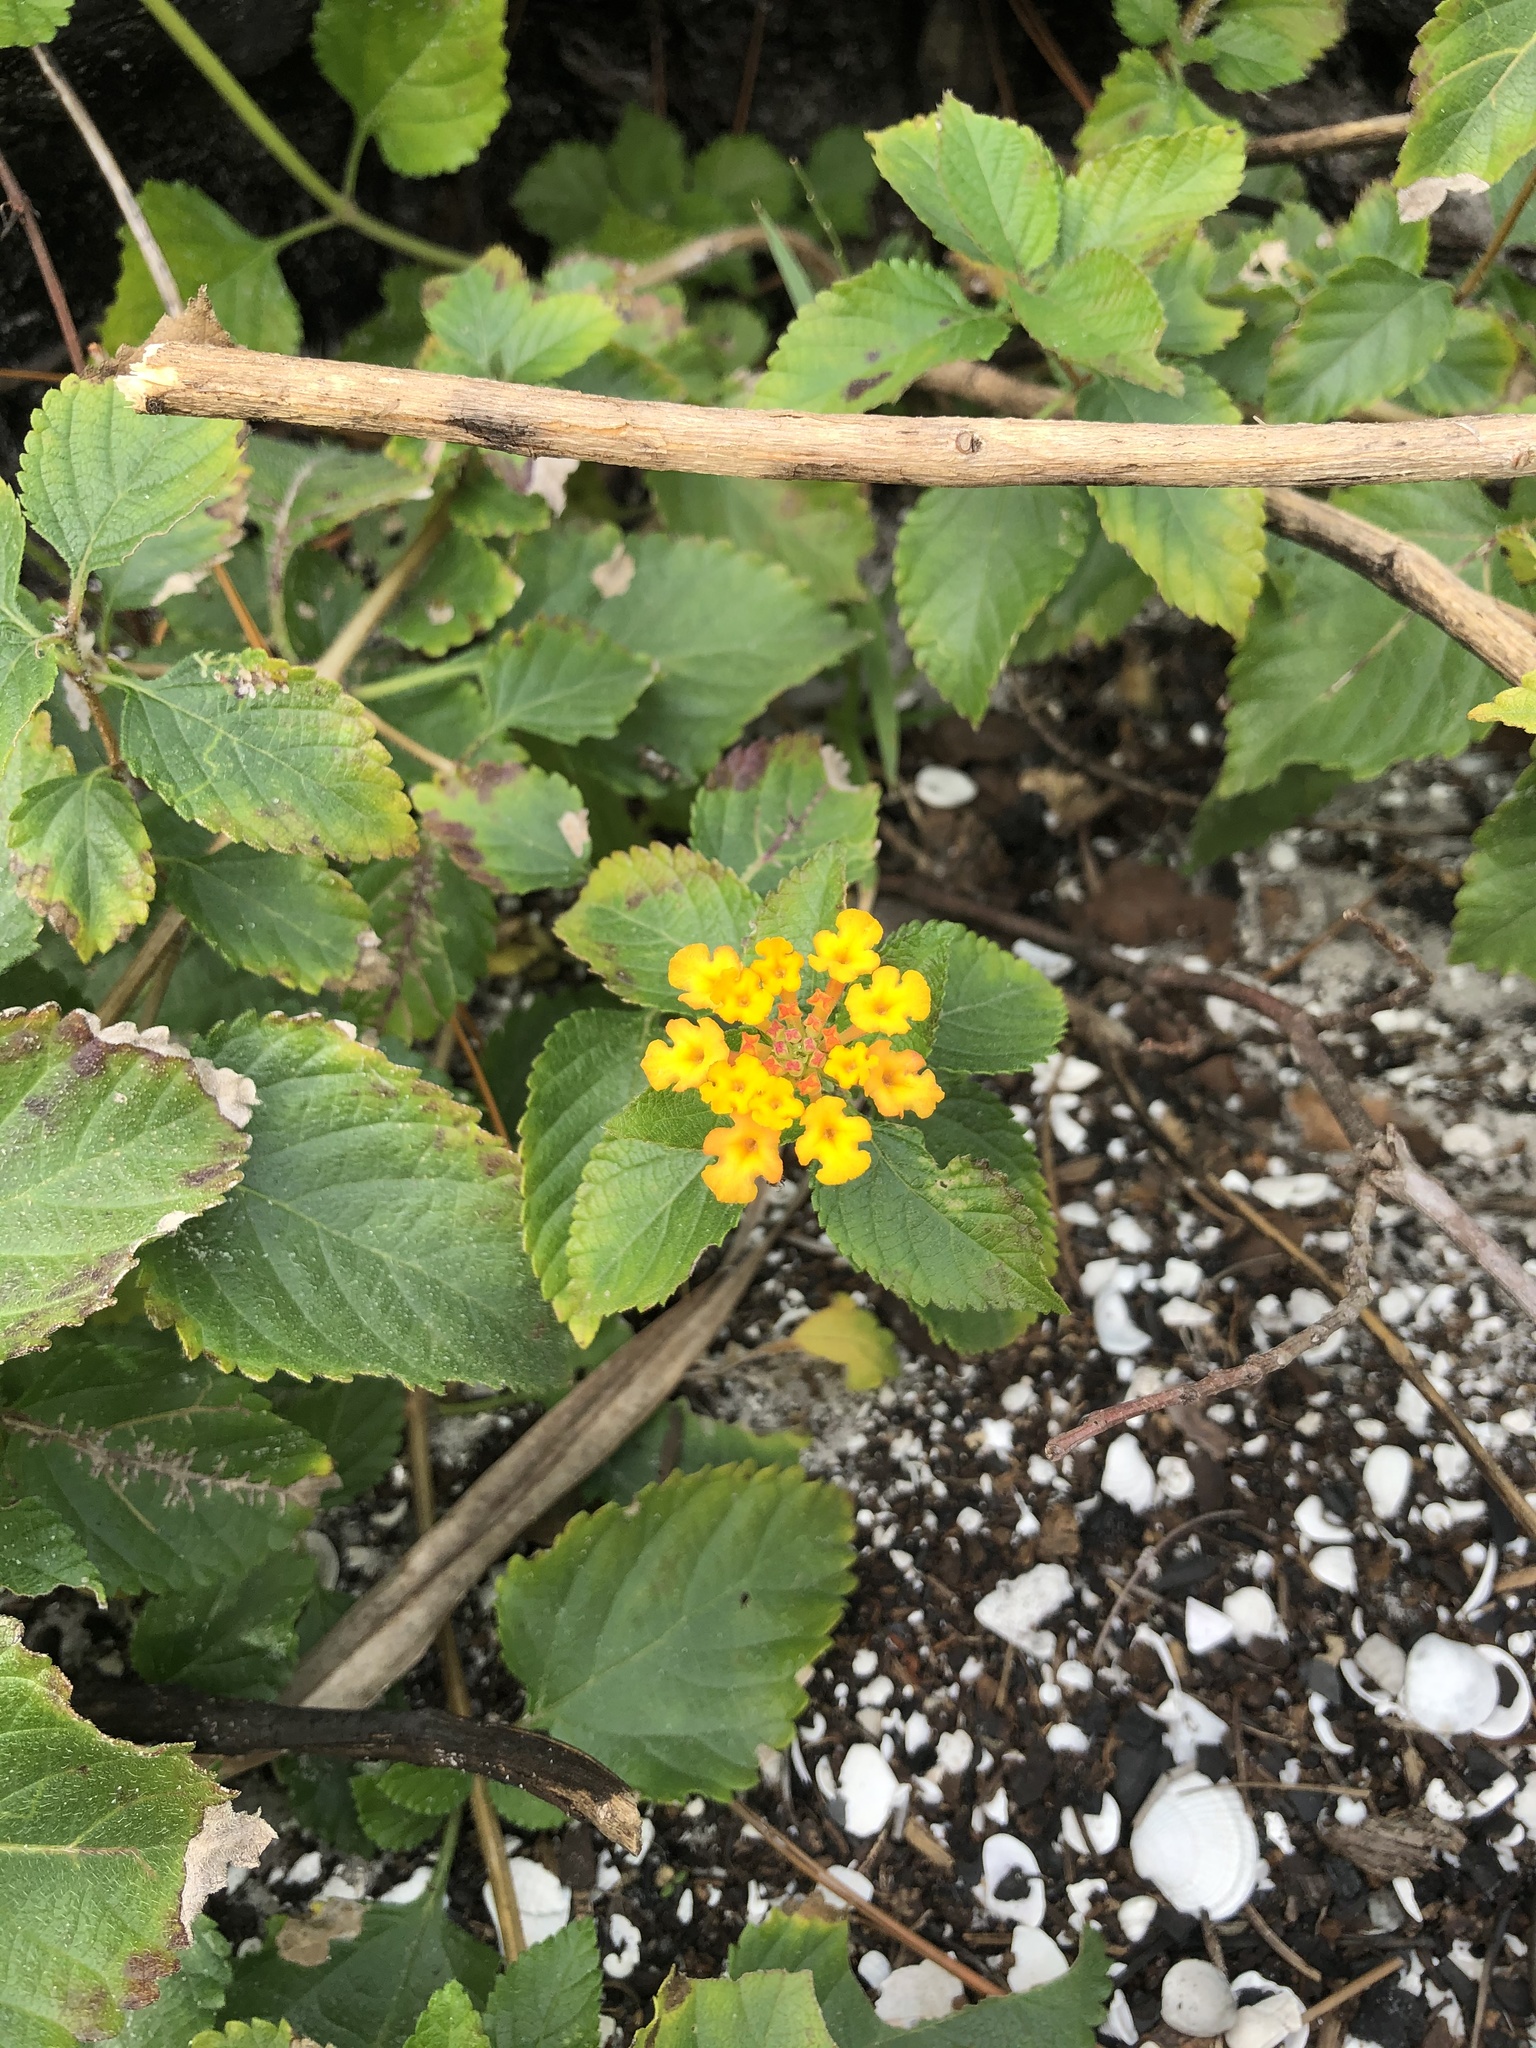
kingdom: Plantae
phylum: Tracheophyta
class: Magnoliopsida
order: Lamiales
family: Verbenaceae
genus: Lantana
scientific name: Lantana camara
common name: Lantana
